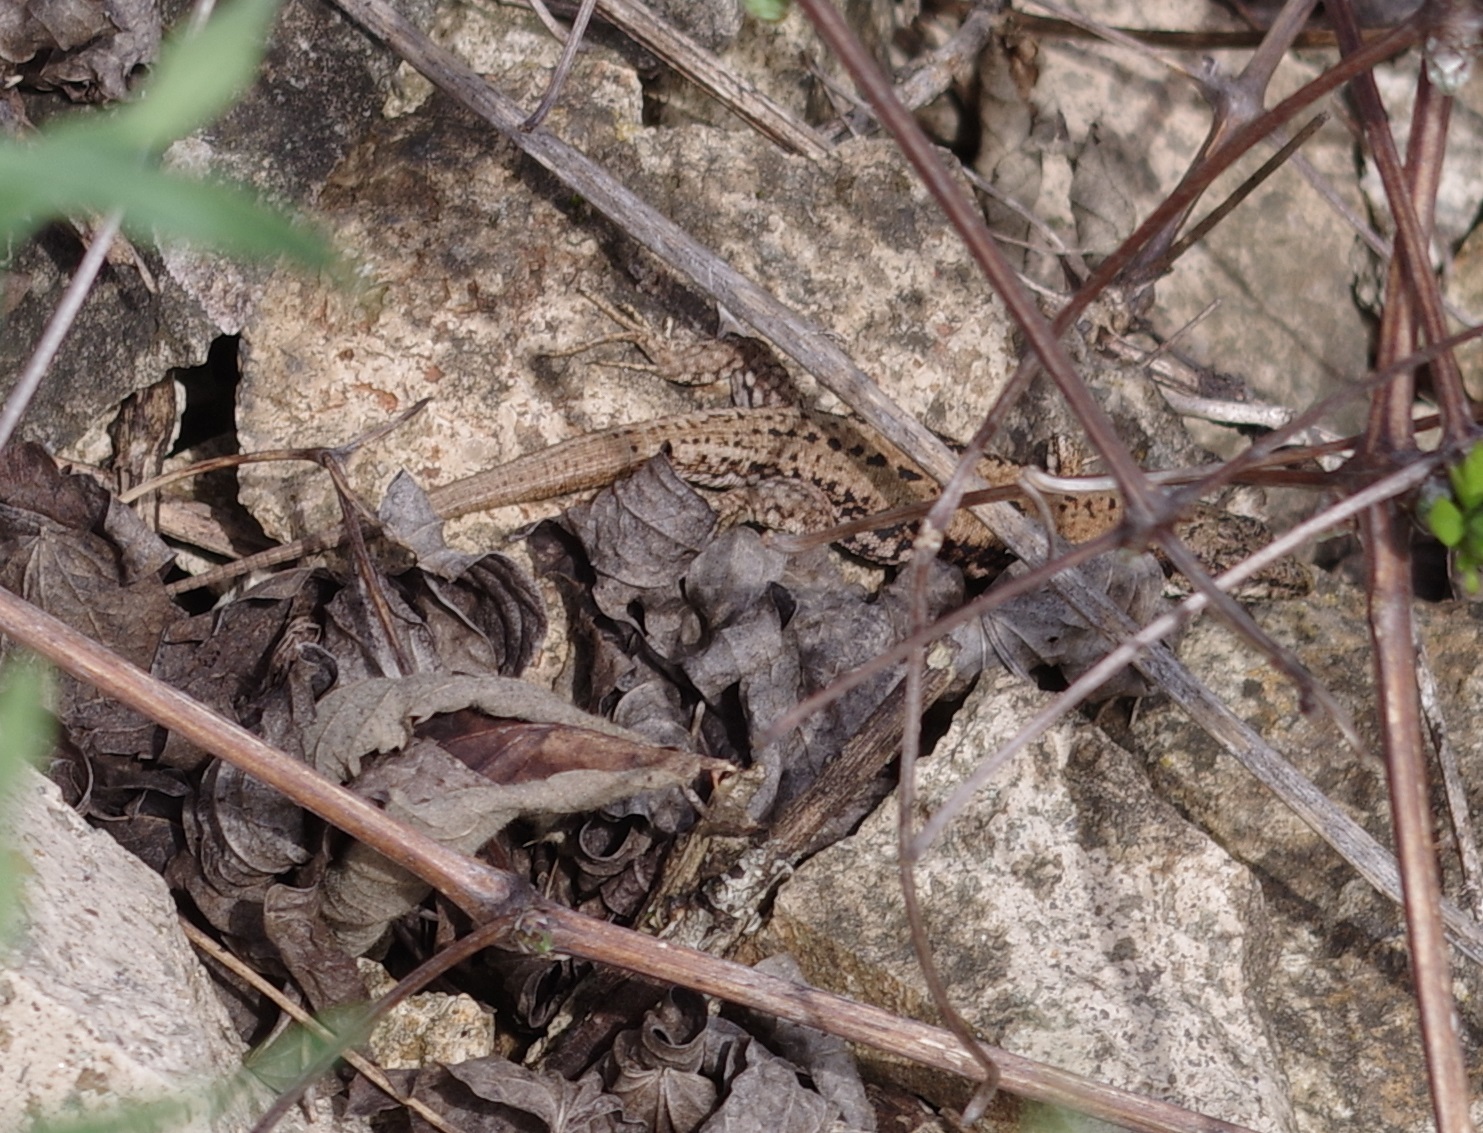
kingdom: Animalia
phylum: Chordata
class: Squamata
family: Lacertidae
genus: Podarcis
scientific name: Podarcis muralis
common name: Common wall lizard
